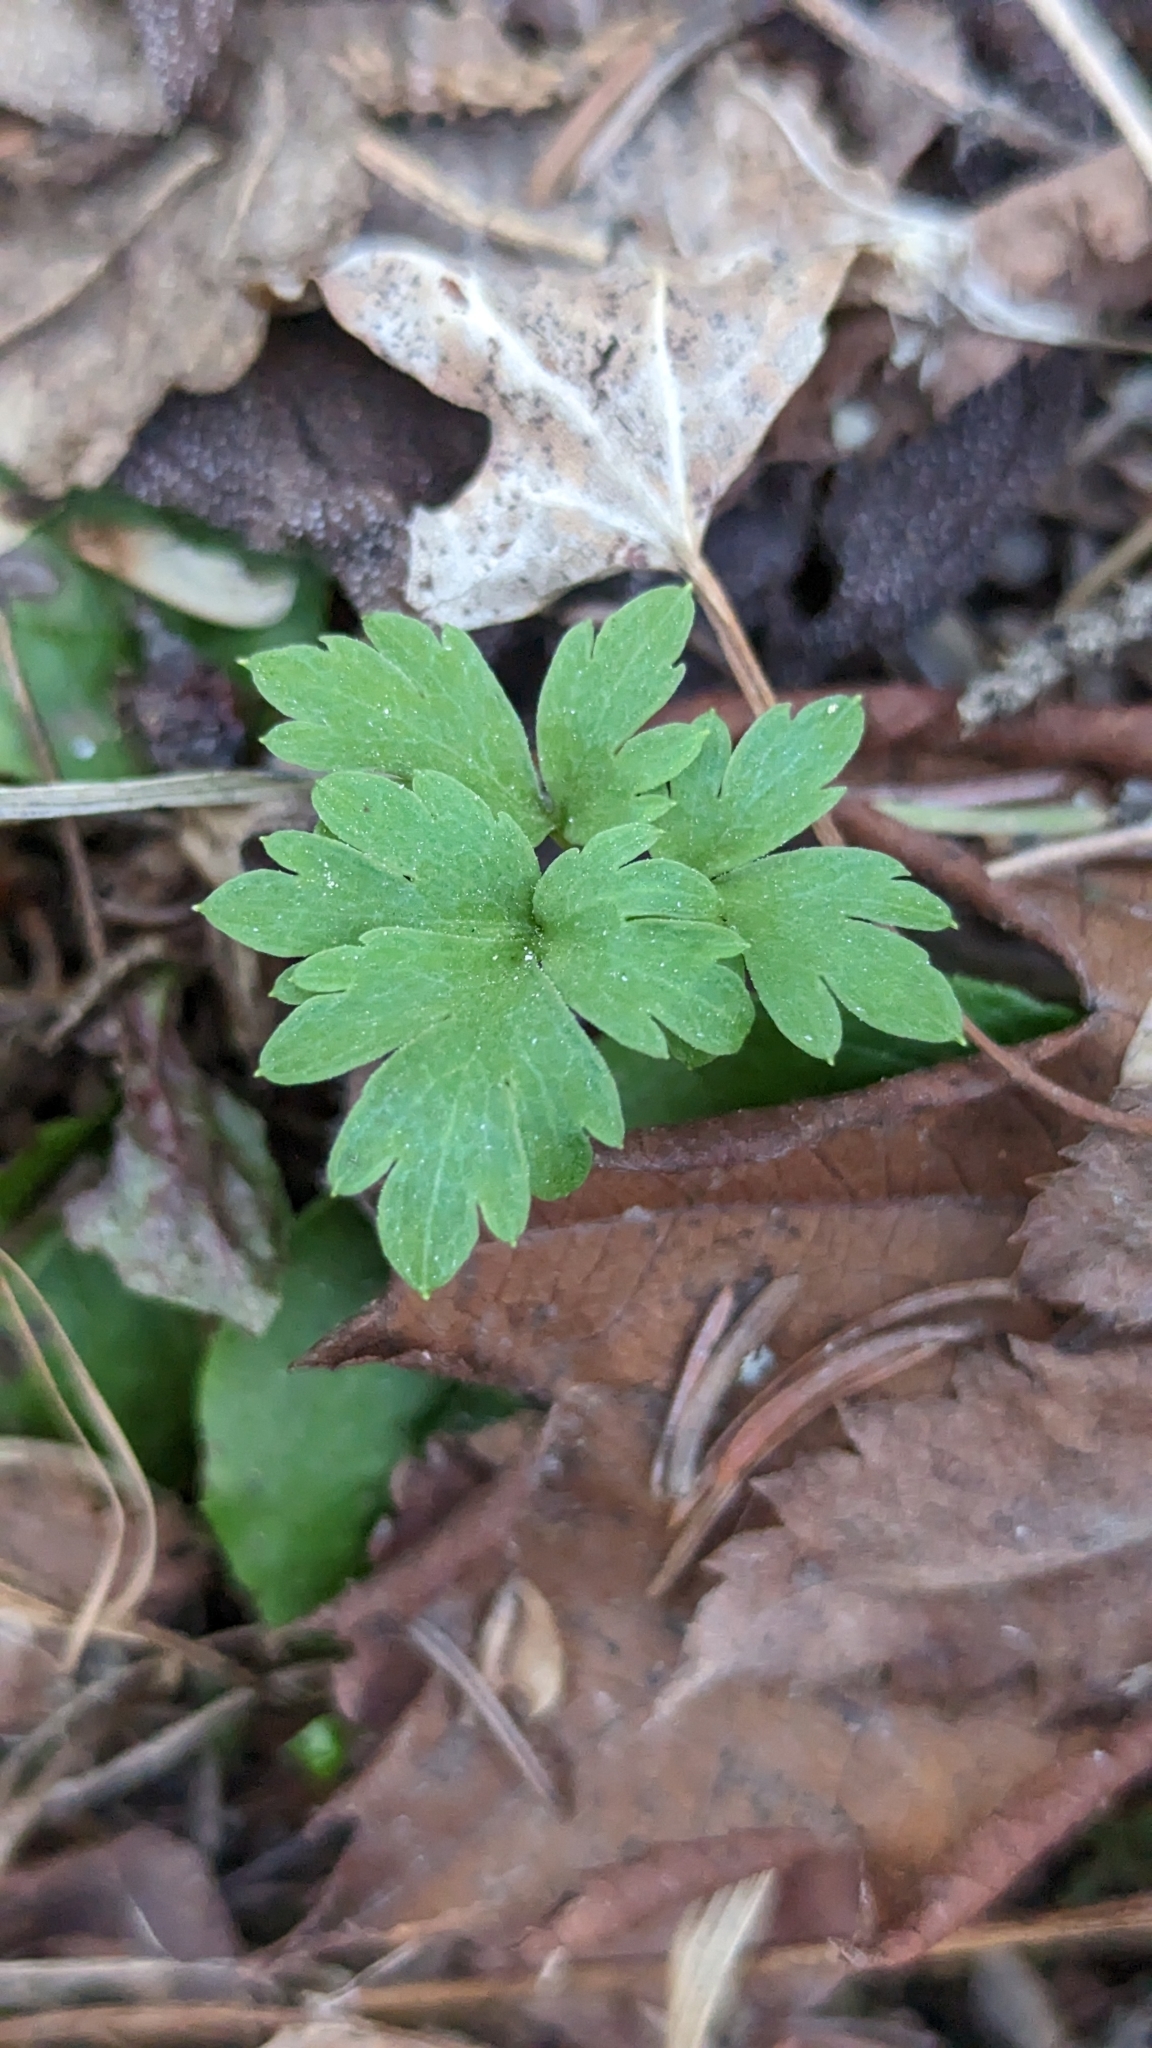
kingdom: Plantae
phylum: Tracheophyta
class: Magnoliopsida
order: Dipsacales
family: Viburnaceae
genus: Adoxa
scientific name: Adoxa moschatellina
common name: Moschatel
